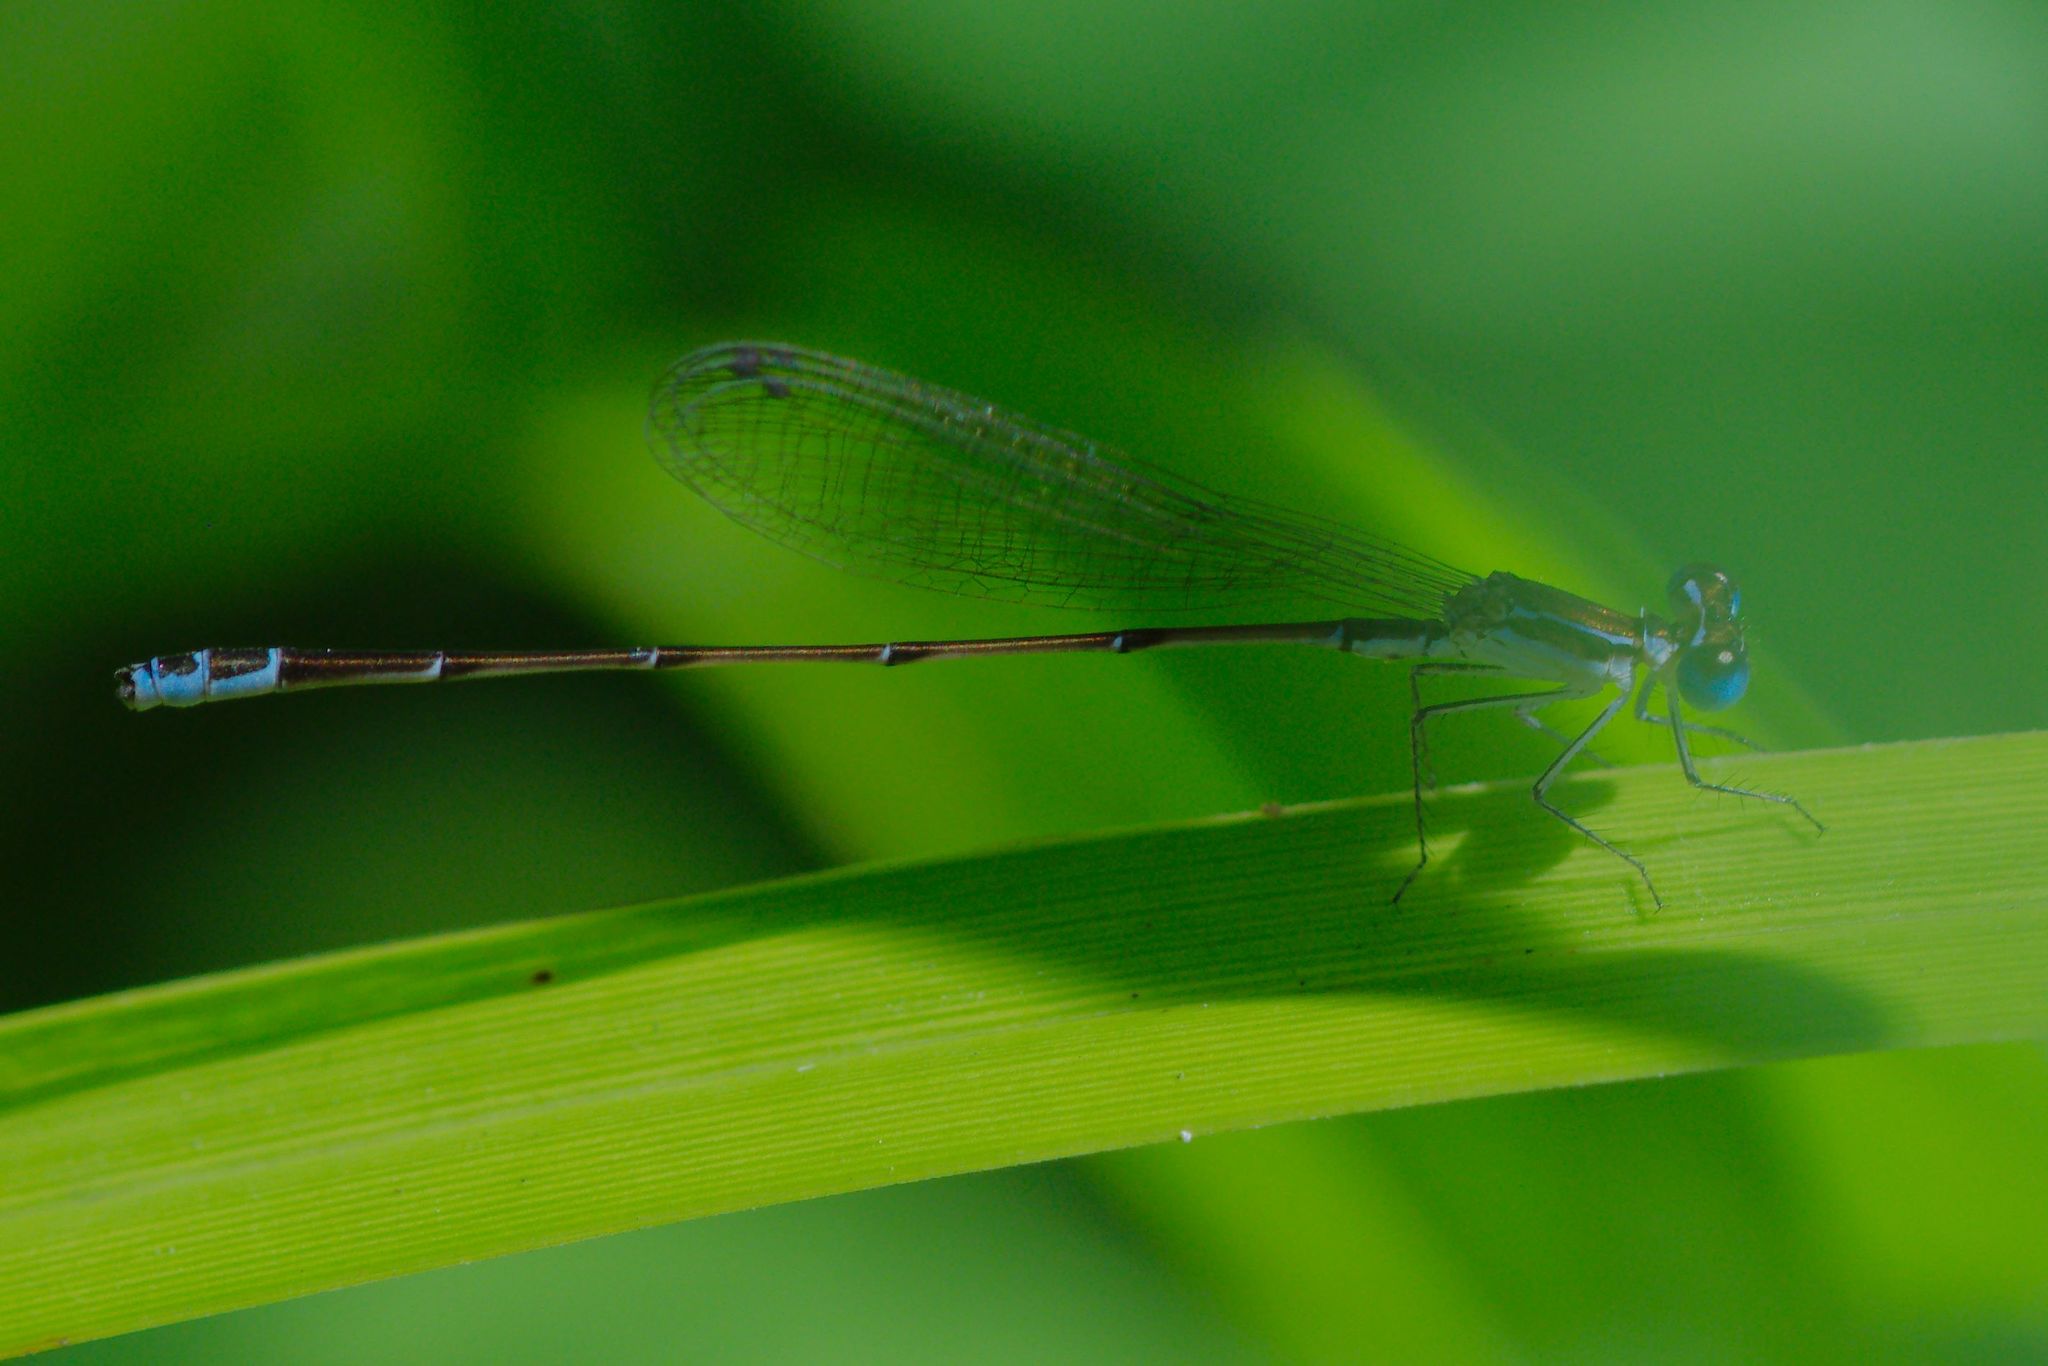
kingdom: Animalia
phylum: Arthropoda
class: Insecta
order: Odonata
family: Coenagrionidae
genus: Nehalennia
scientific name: Nehalennia pallidula
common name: Everglades sprite
